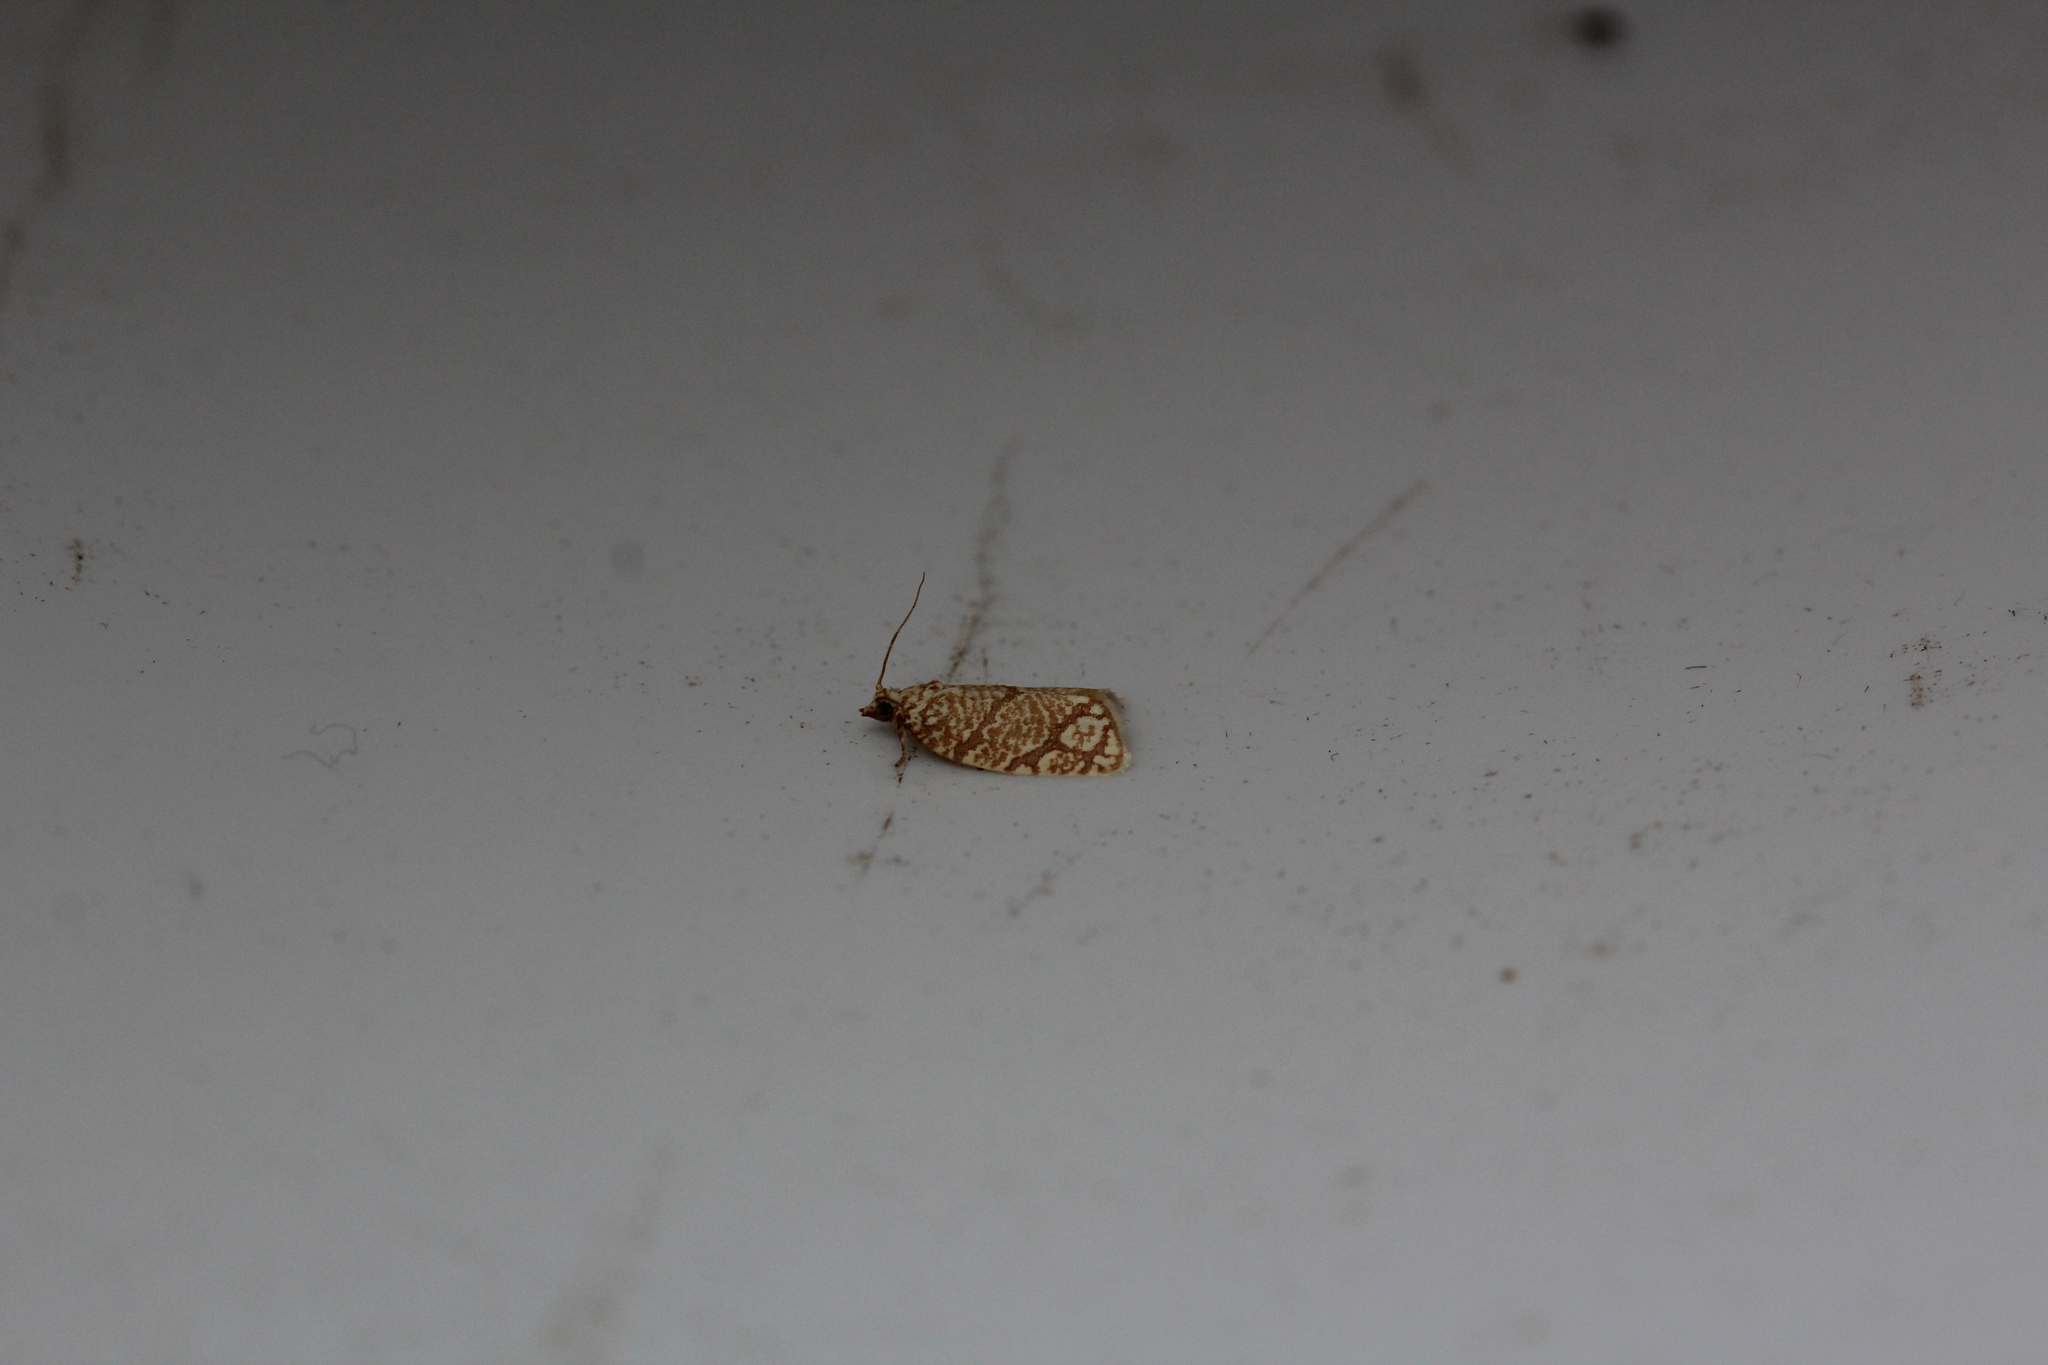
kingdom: Animalia
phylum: Arthropoda
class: Insecta
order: Lepidoptera
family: Tortricidae
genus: Argyrotaenia
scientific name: Argyrotaenia quercifoliana
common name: Yellow-winged oak leafroller moth
